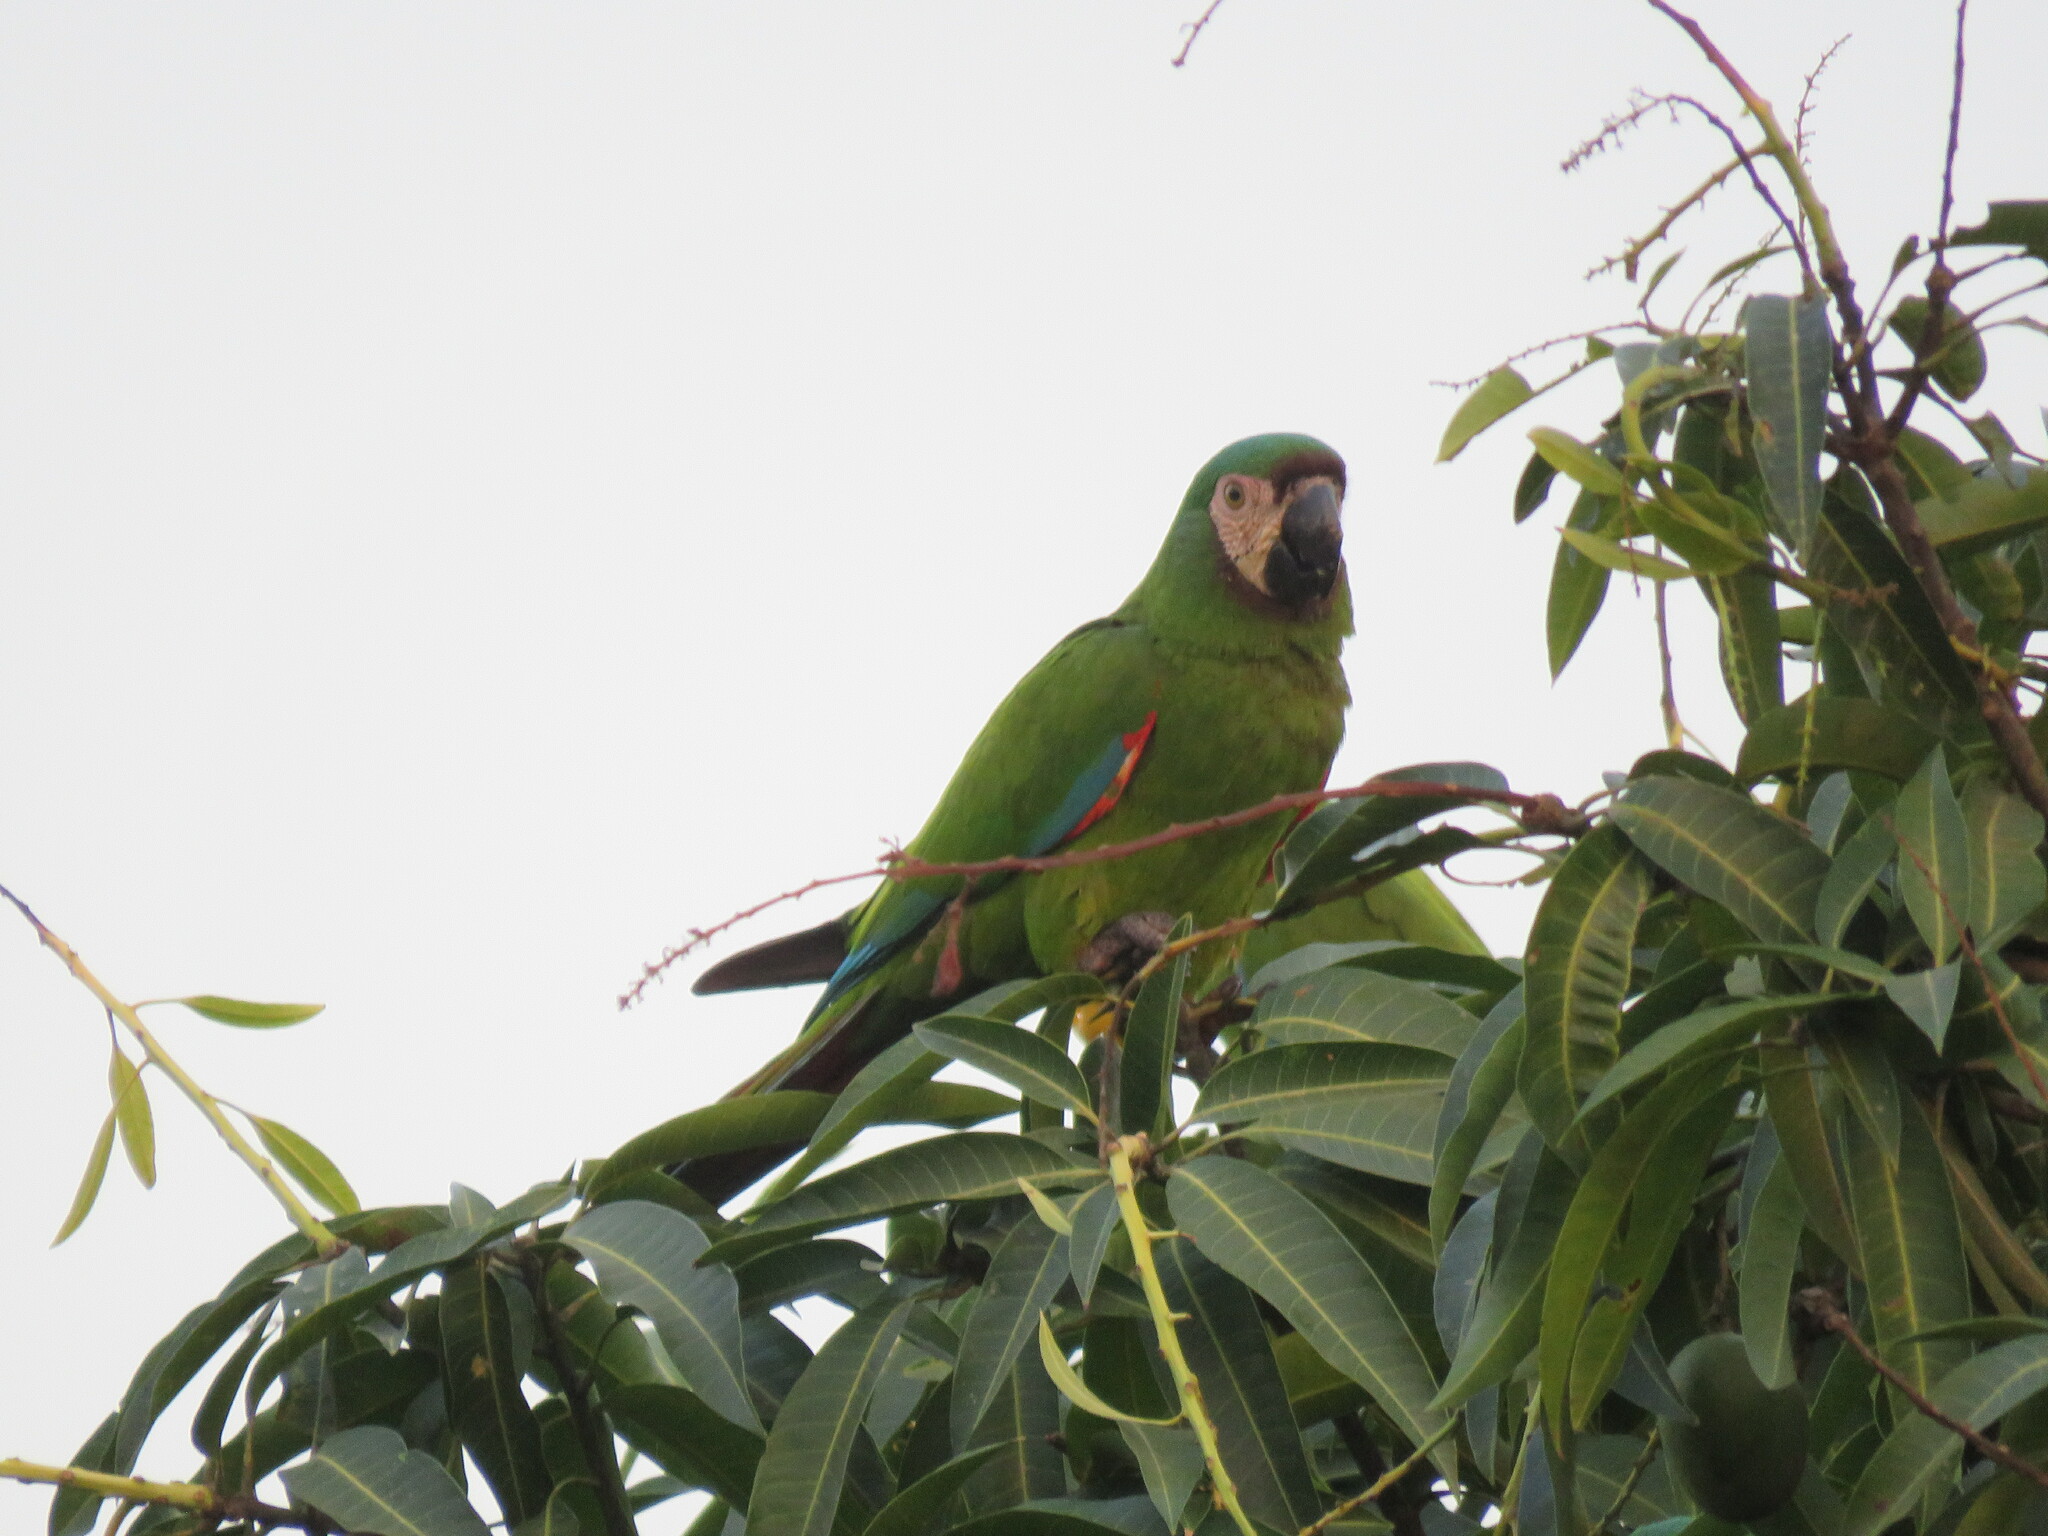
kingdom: Animalia
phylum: Chordata
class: Aves
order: Psittaciformes
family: Psittacidae
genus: Ara
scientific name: Ara severus
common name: Chestnut-fronted macaw
